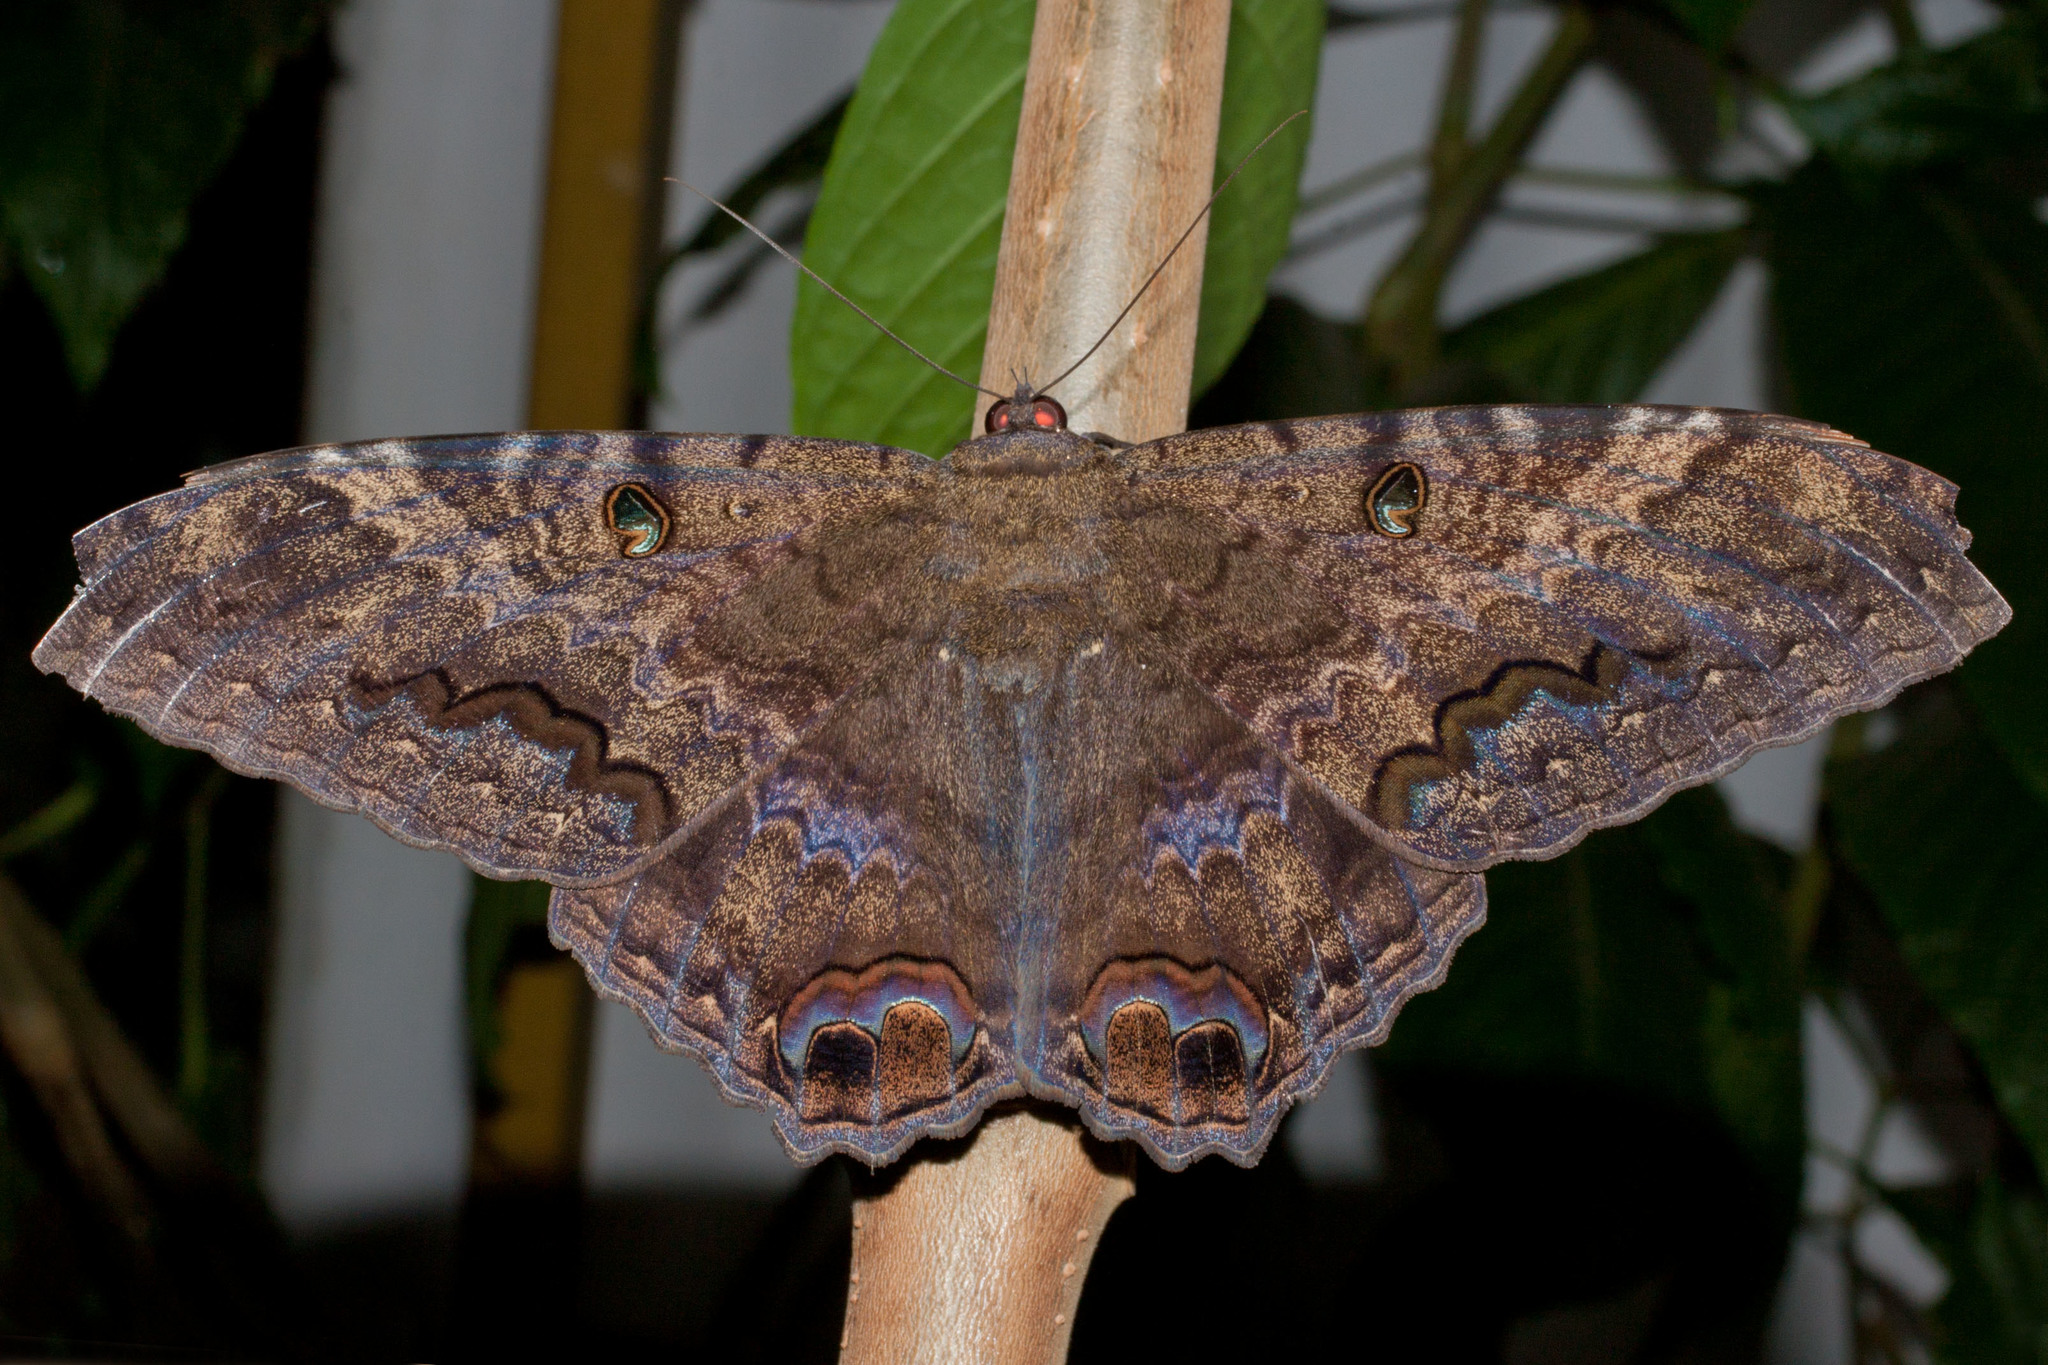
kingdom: Animalia
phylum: Arthropoda
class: Insecta
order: Lepidoptera
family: Erebidae
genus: Ascalapha
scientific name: Ascalapha odorata
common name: Black witch
